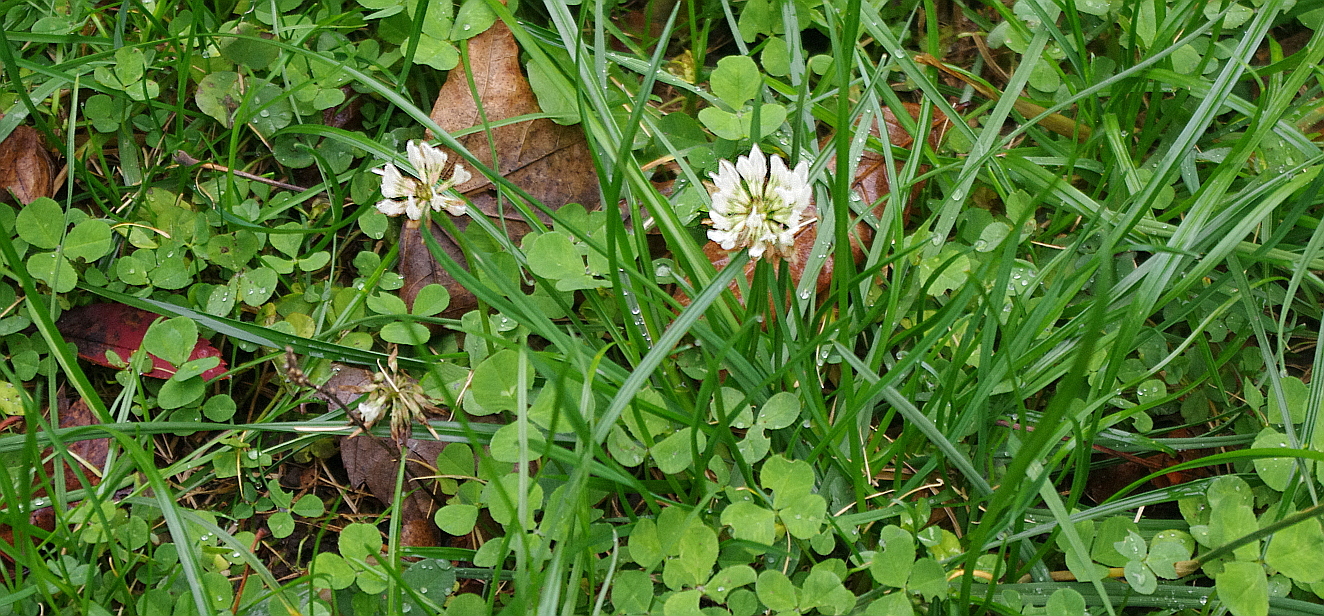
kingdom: Plantae
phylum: Tracheophyta
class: Magnoliopsida
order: Fabales
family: Fabaceae
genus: Trifolium
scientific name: Trifolium repens
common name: White clover
